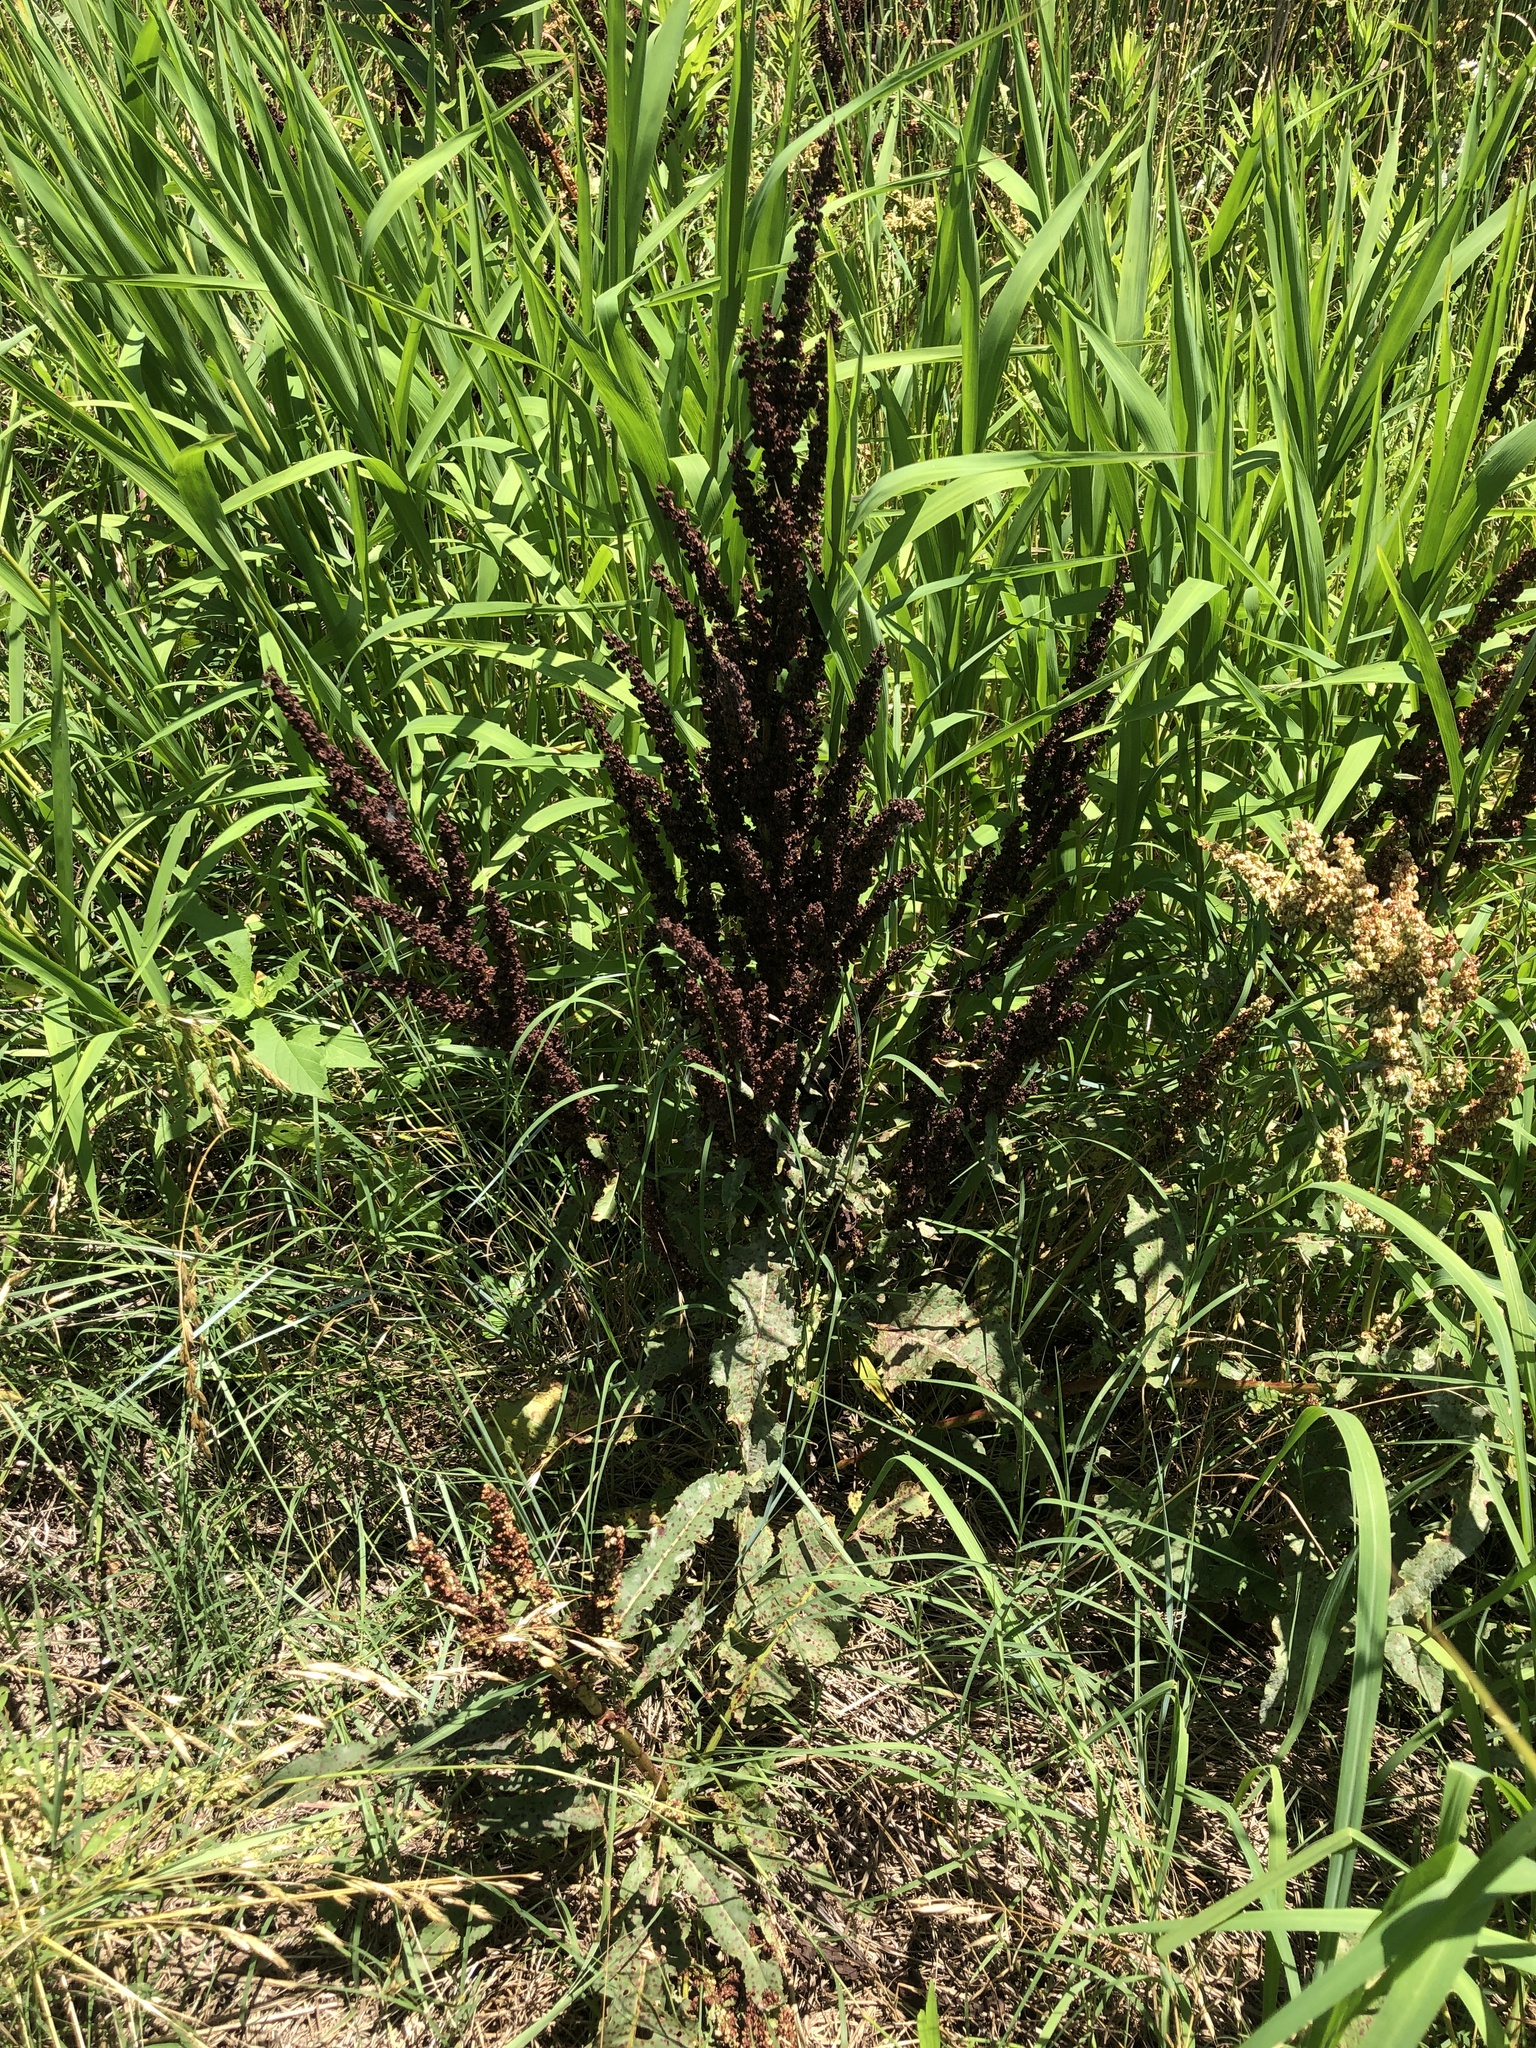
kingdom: Plantae
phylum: Tracheophyta
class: Magnoliopsida
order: Caryophyllales
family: Polygonaceae
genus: Rumex
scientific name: Rumex crispus
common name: Curled dock
